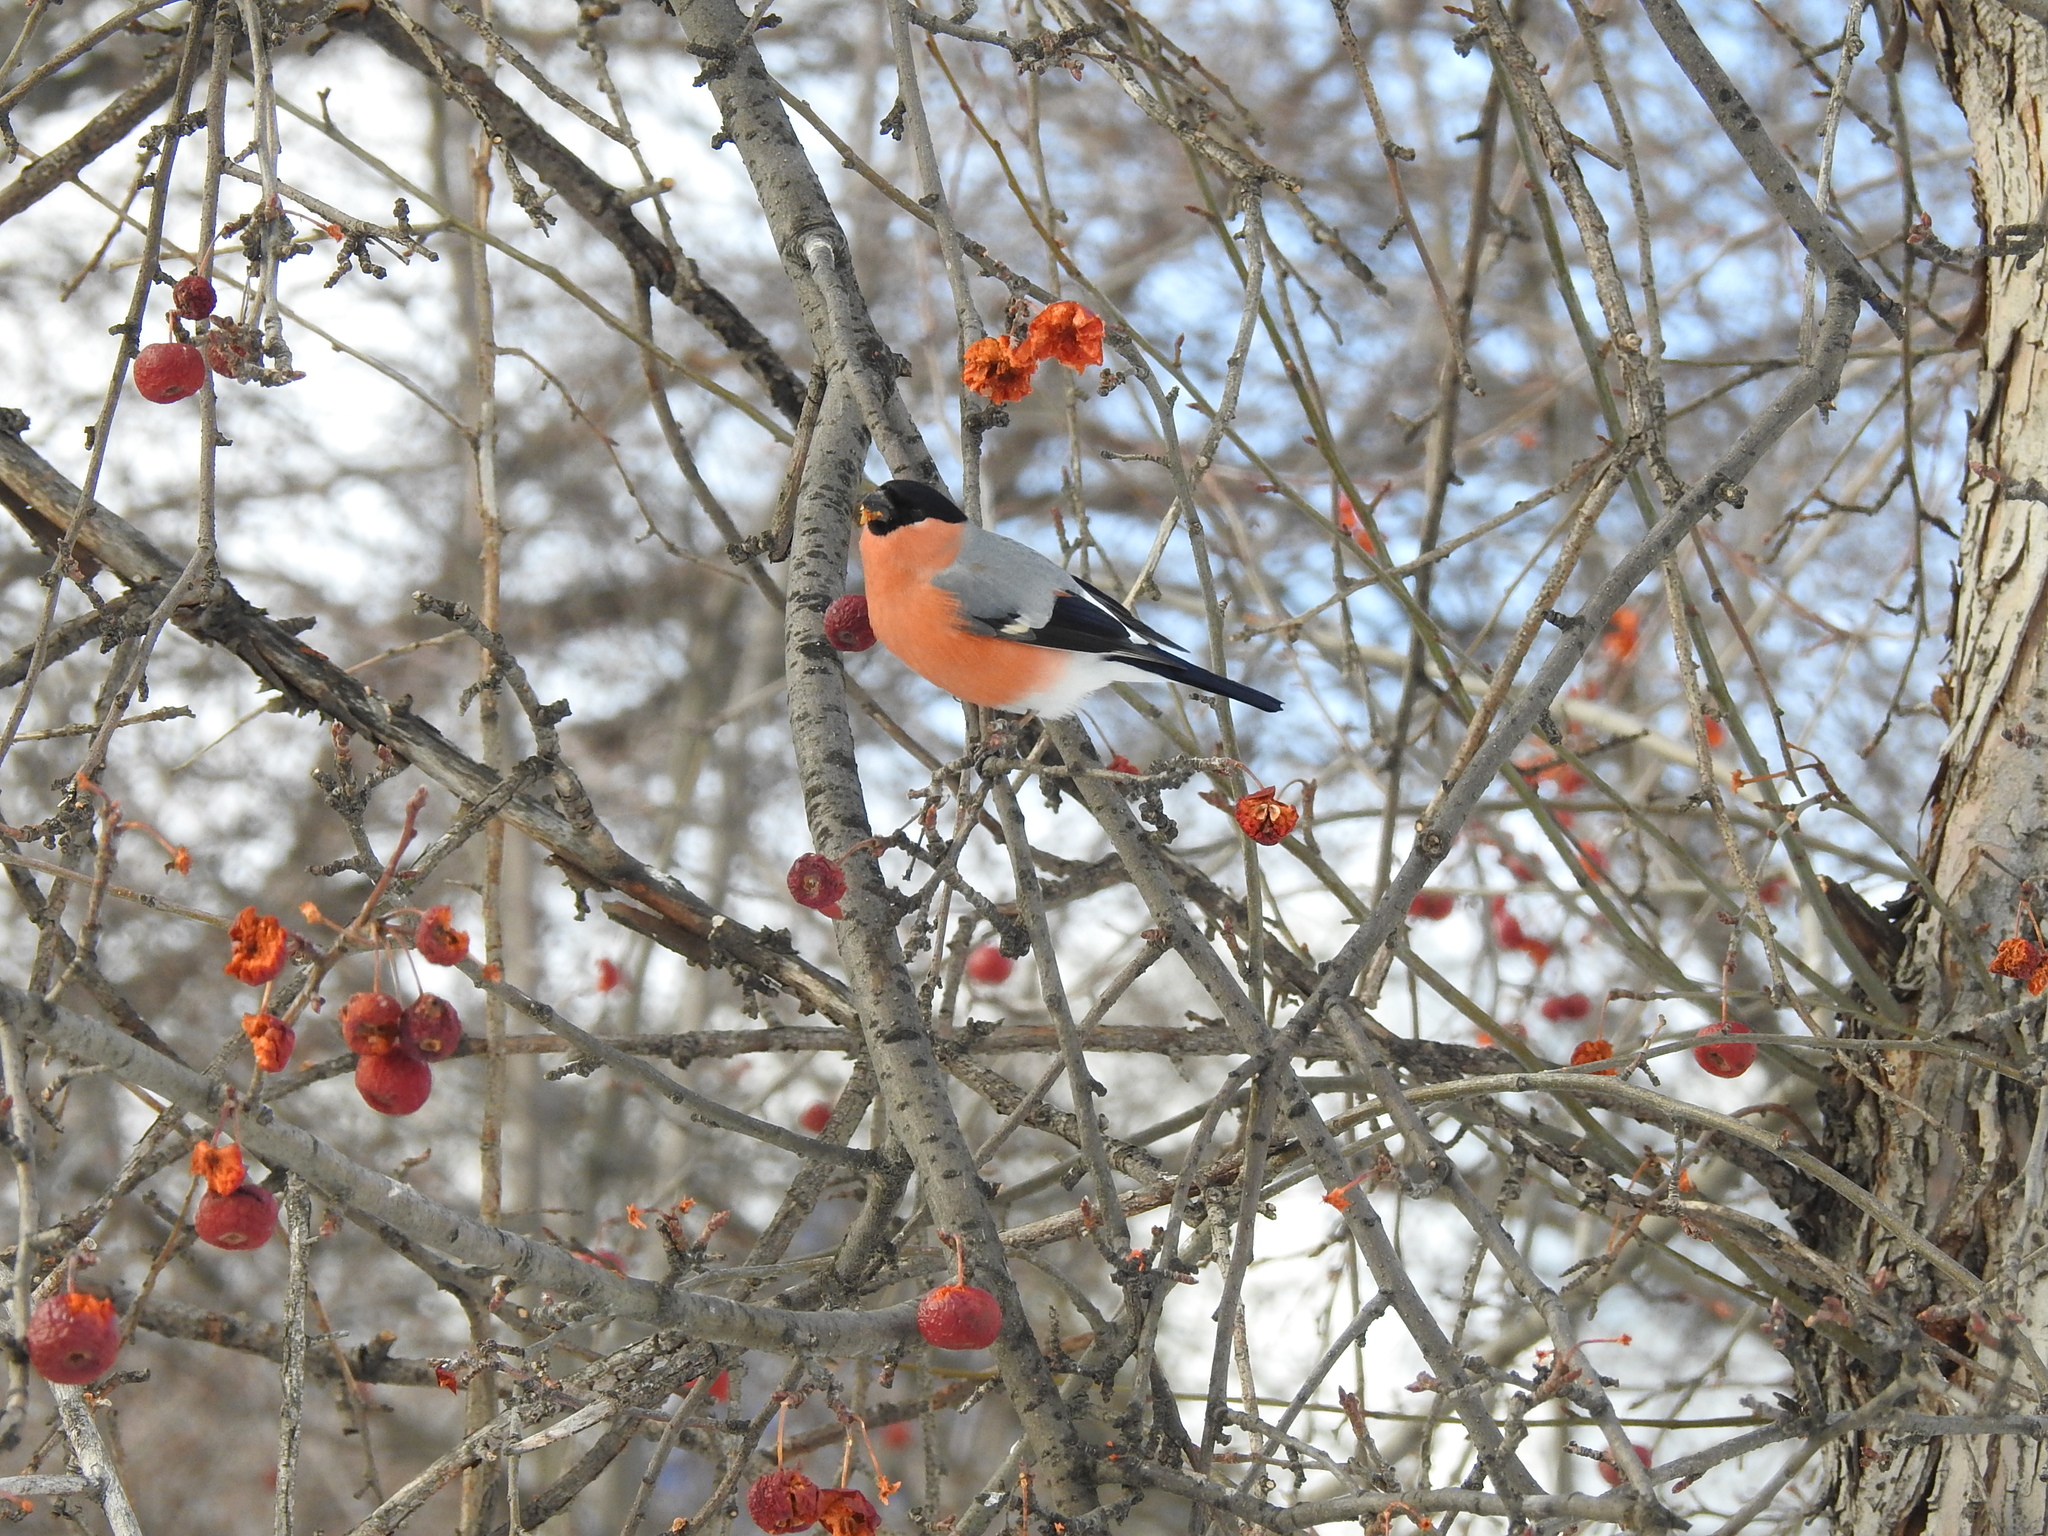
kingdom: Animalia
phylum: Chordata
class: Aves
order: Passeriformes
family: Fringillidae
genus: Pyrrhula
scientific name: Pyrrhula pyrrhula
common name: Eurasian bullfinch
